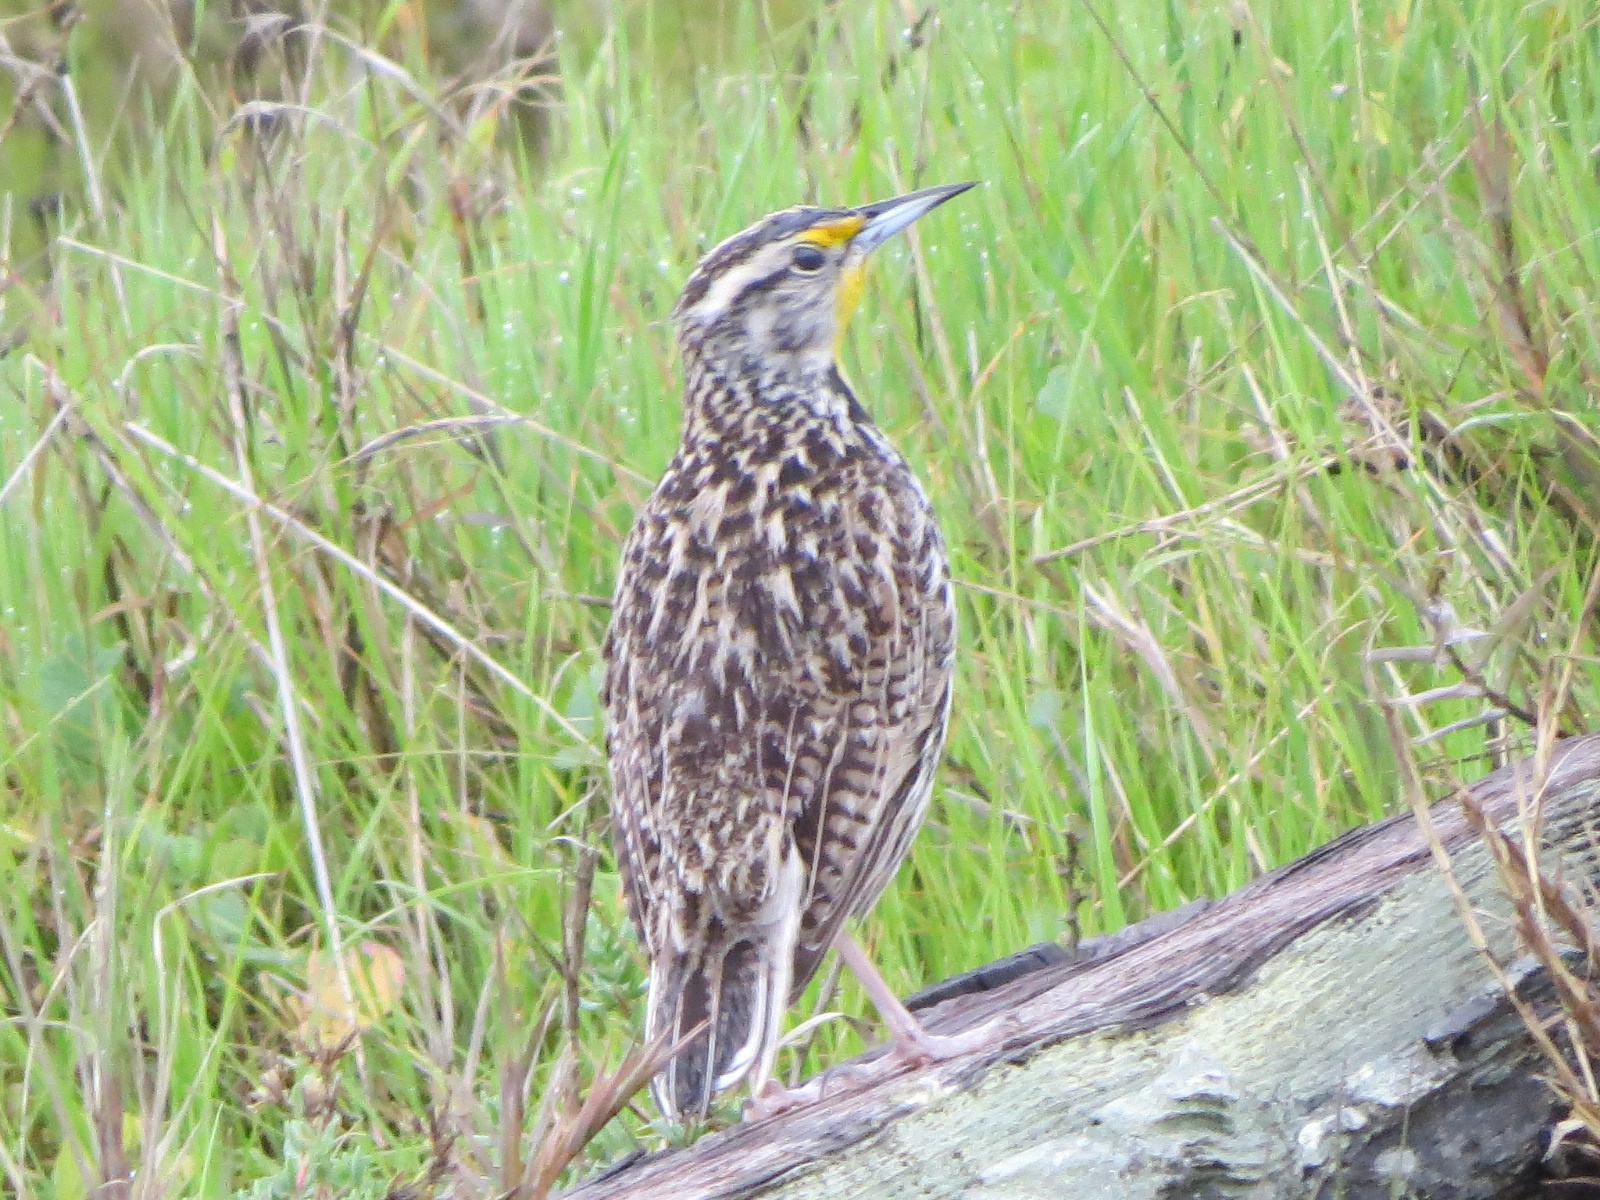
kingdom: Animalia
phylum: Chordata
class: Aves
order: Passeriformes
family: Icteridae
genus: Sturnella
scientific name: Sturnella neglecta
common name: Western meadowlark
